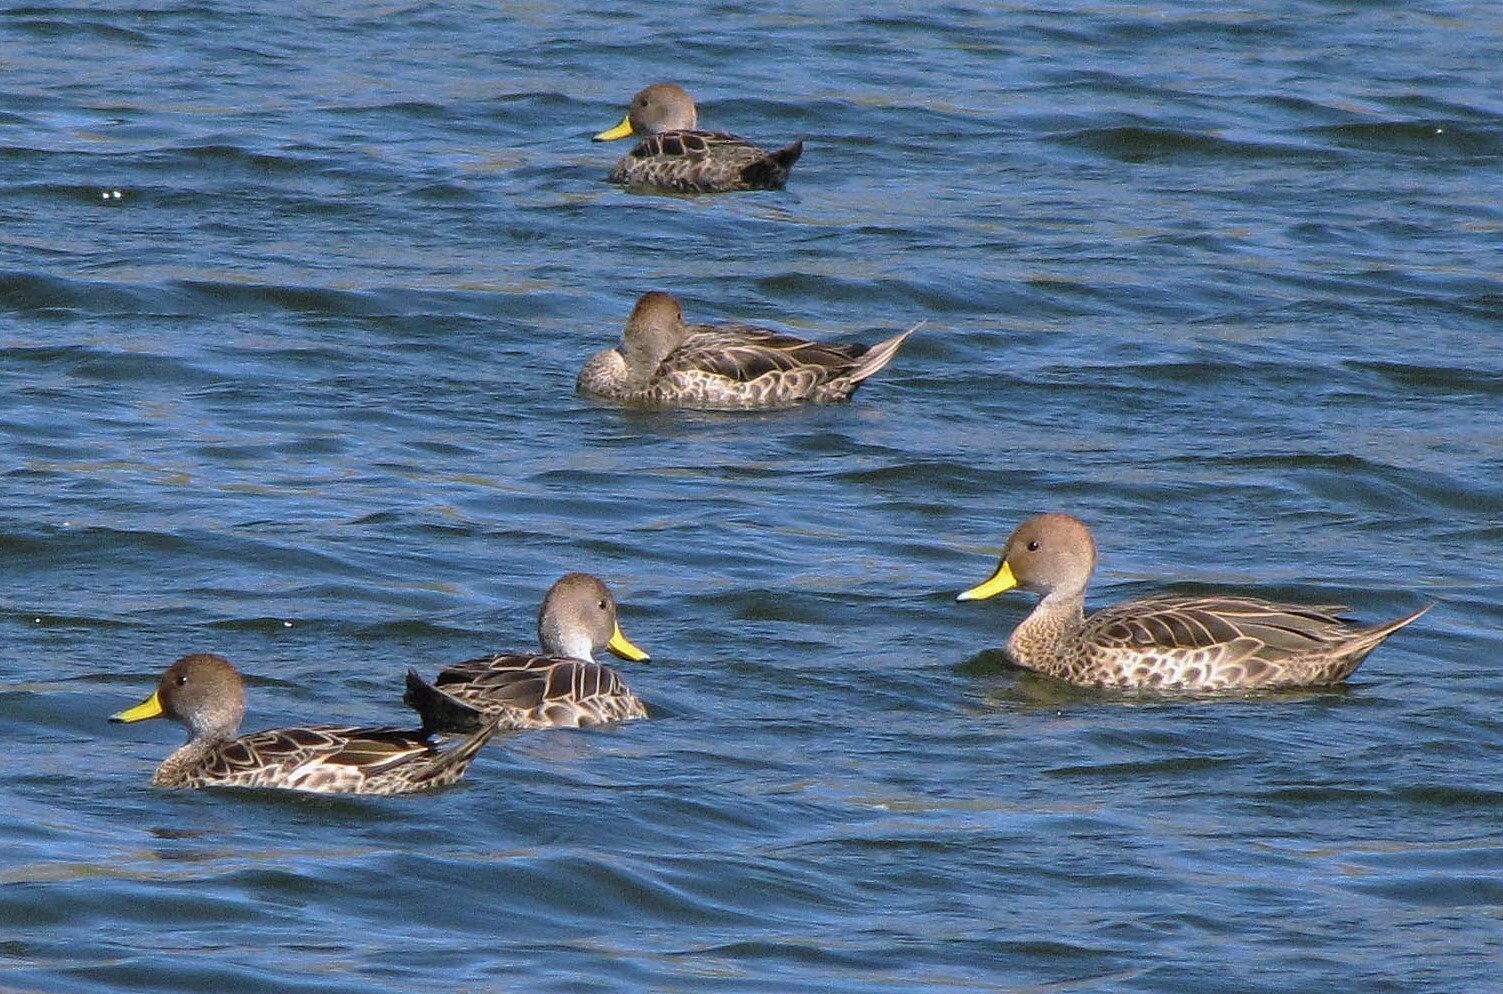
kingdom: Animalia
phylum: Chordata
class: Aves
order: Anseriformes
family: Anatidae
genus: Anas
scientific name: Anas georgica
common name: Yellow-billed pintail
